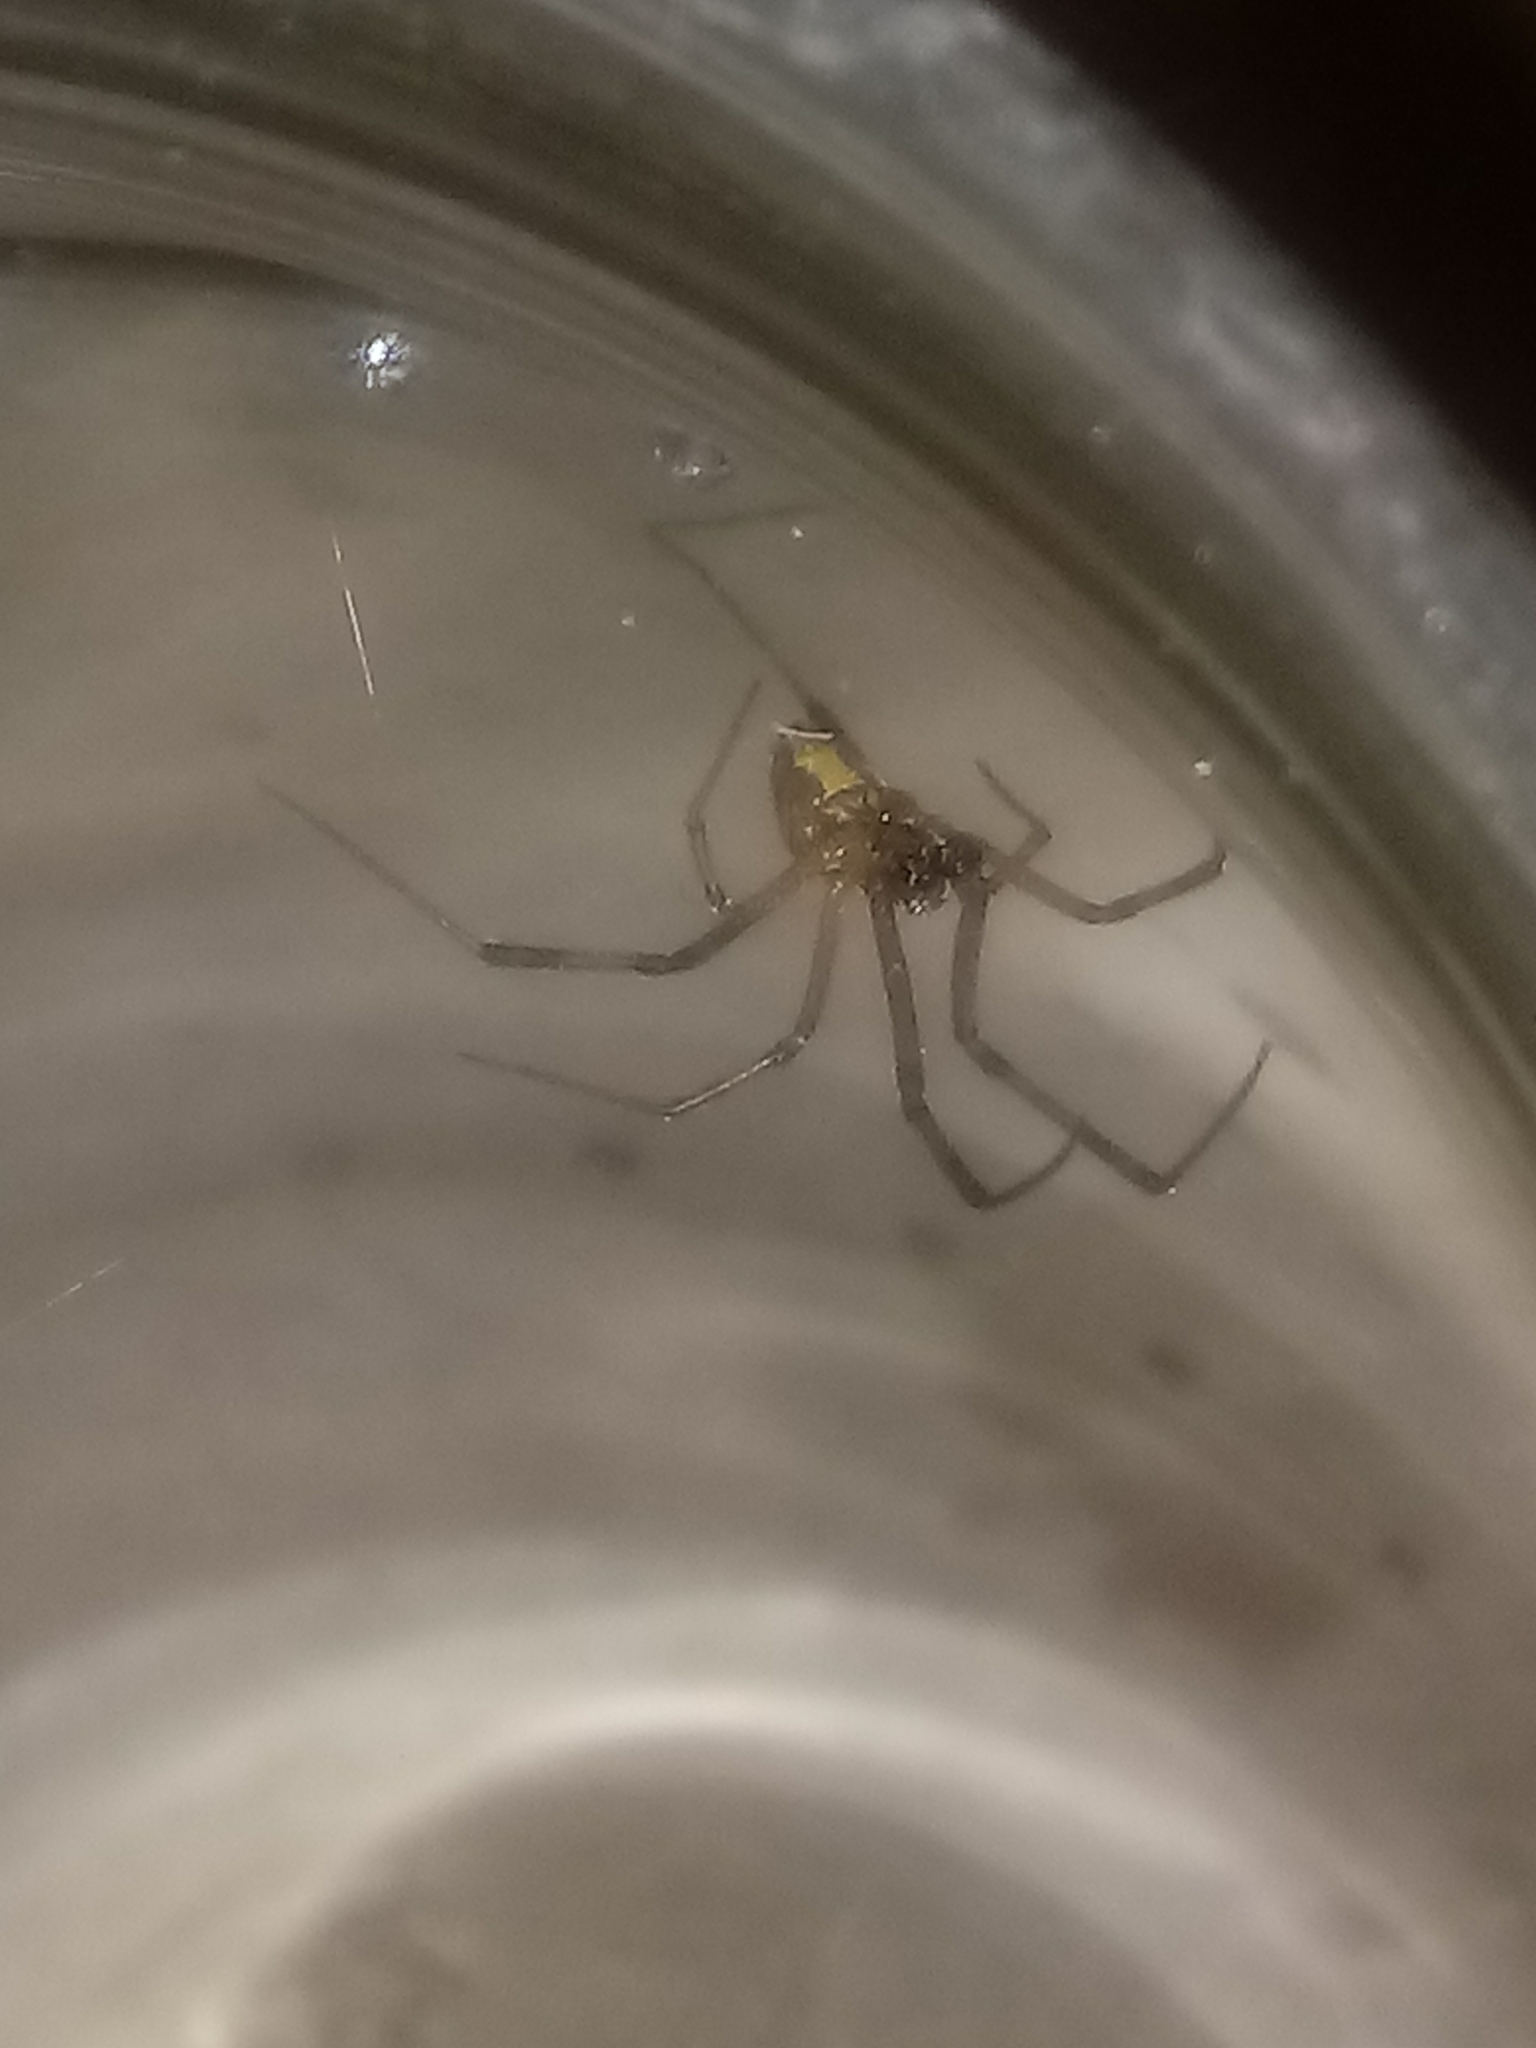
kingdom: Animalia
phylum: Arthropoda
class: Arachnida
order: Araneae
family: Theridiidae
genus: Latrodectus
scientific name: Latrodectus geometricus
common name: Brown widow spider
